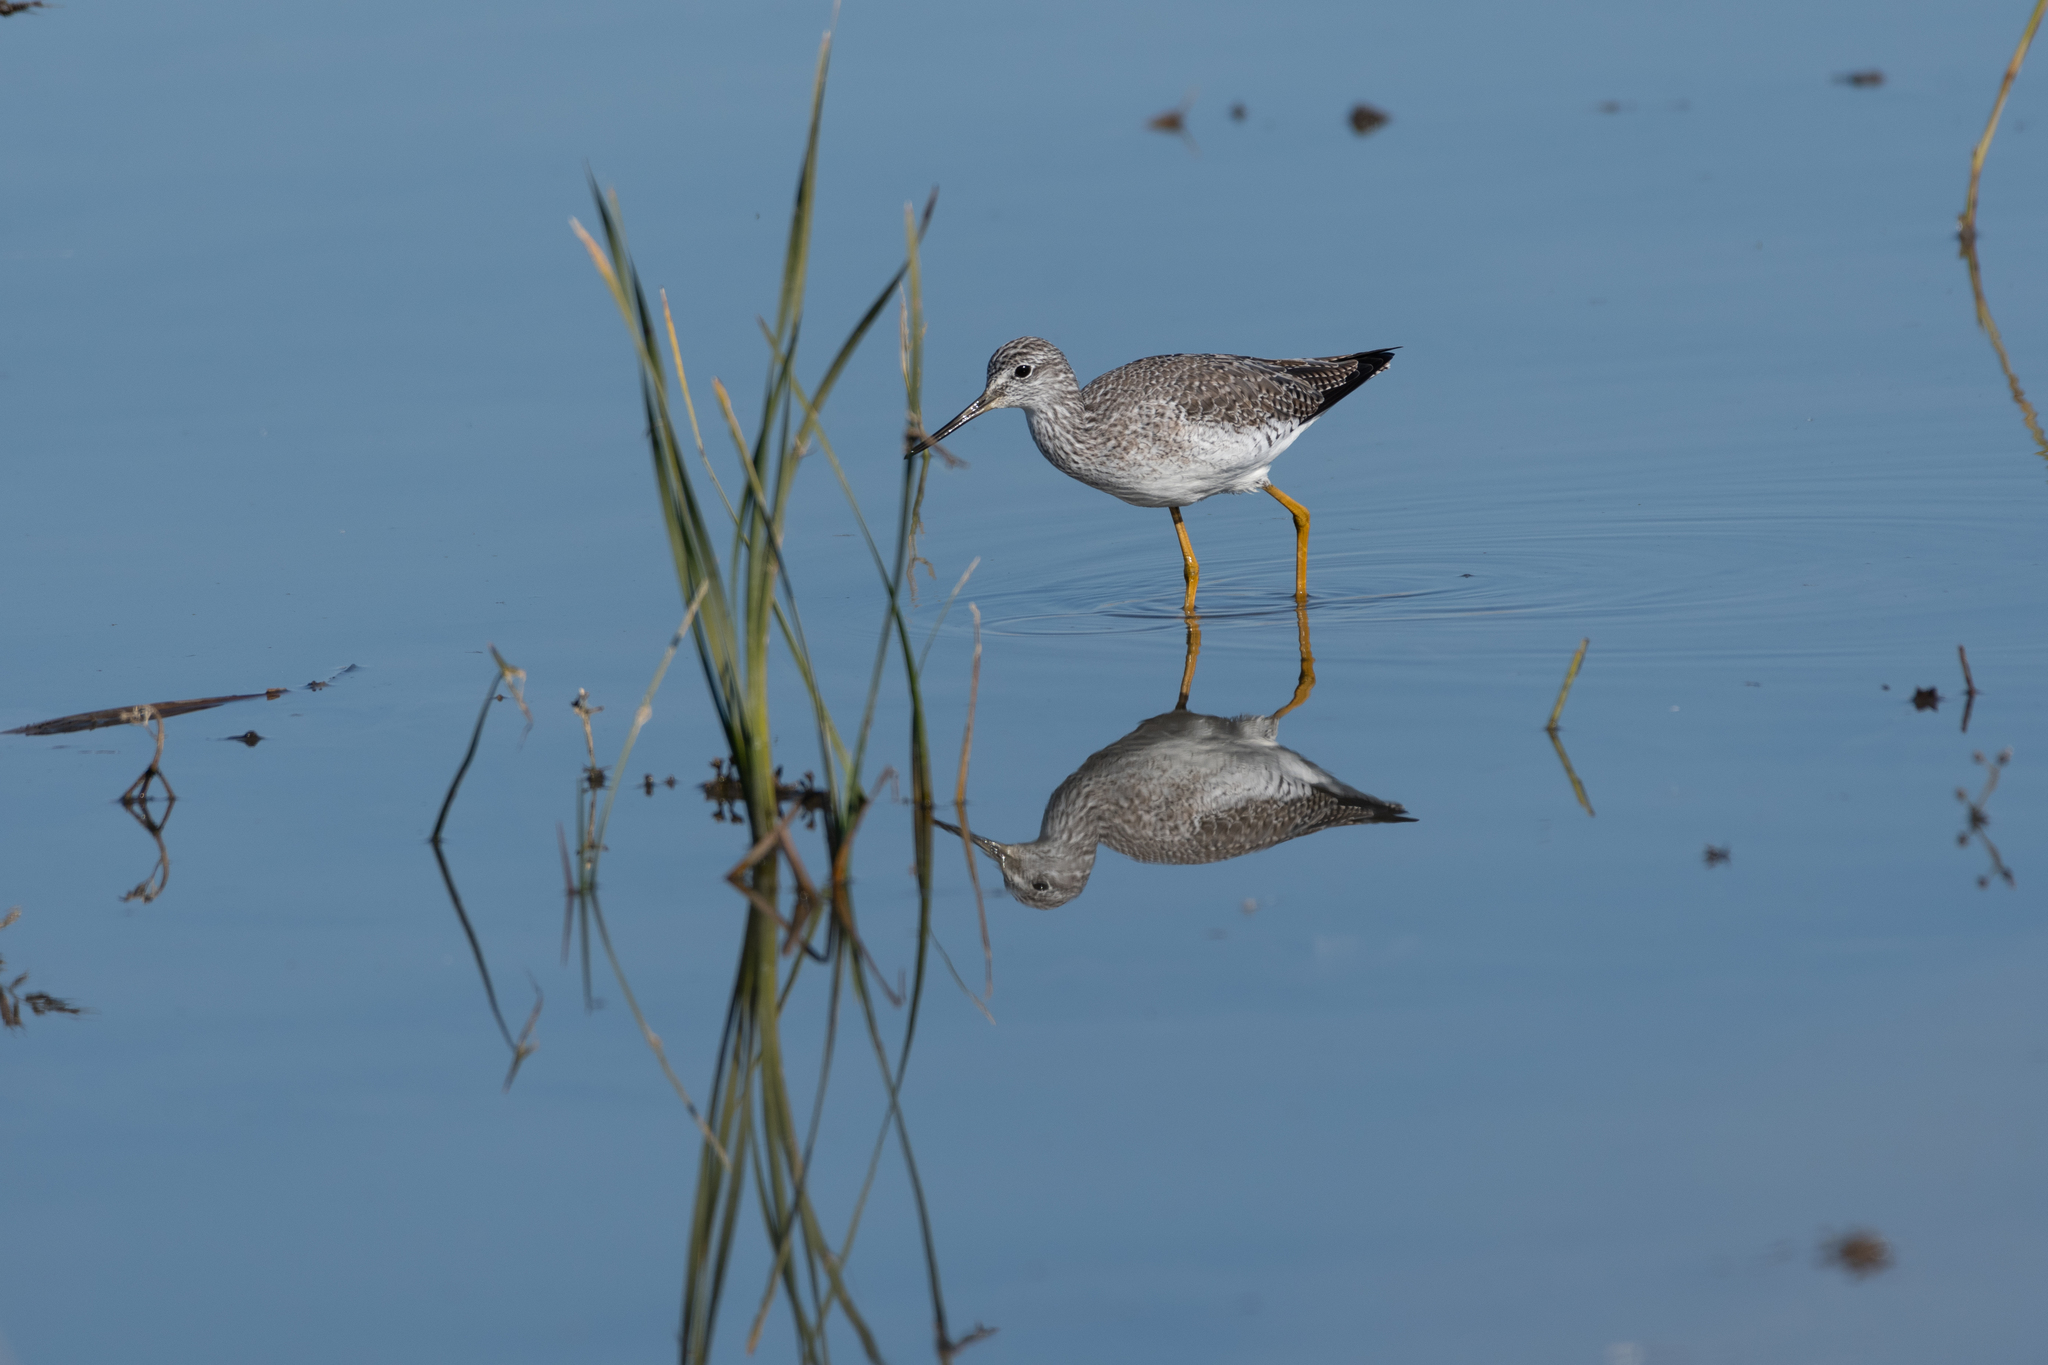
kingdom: Animalia
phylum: Chordata
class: Aves
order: Charadriiformes
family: Scolopacidae
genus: Tringa
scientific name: Tringa melanoleuca
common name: Greater yellowlegs
